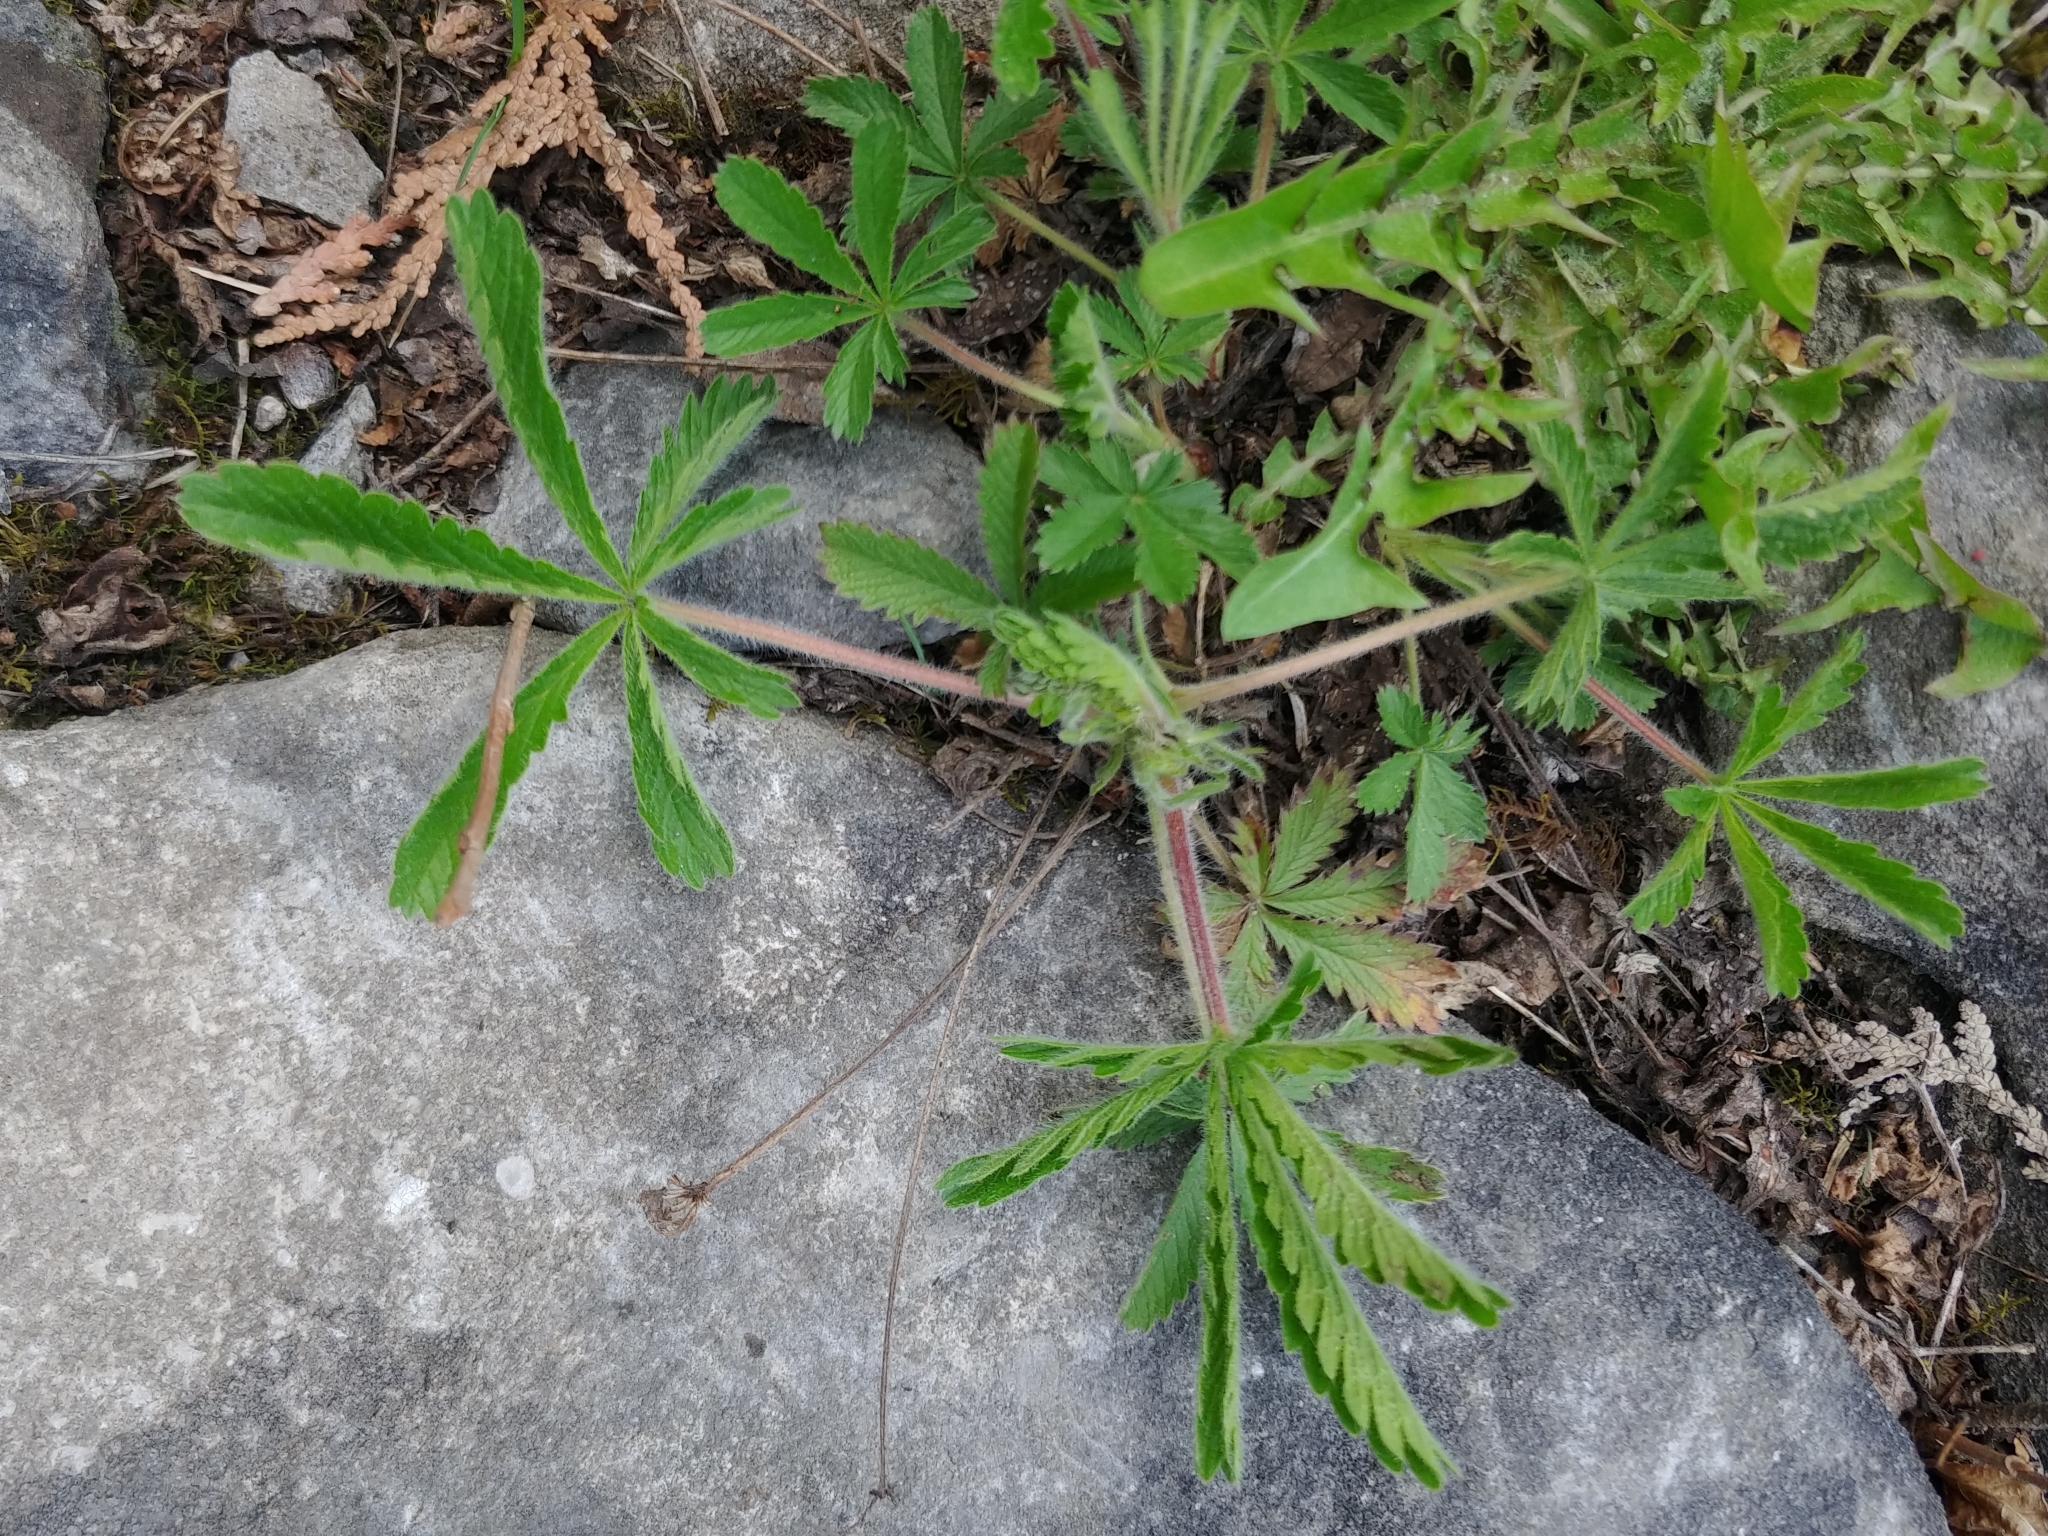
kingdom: Plantae
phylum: Tracheophyta
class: Magnoliopsida
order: Rosales
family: Rosaceae
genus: Potentilla
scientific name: Potentilla recta
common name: Sulphur cinquefoil
